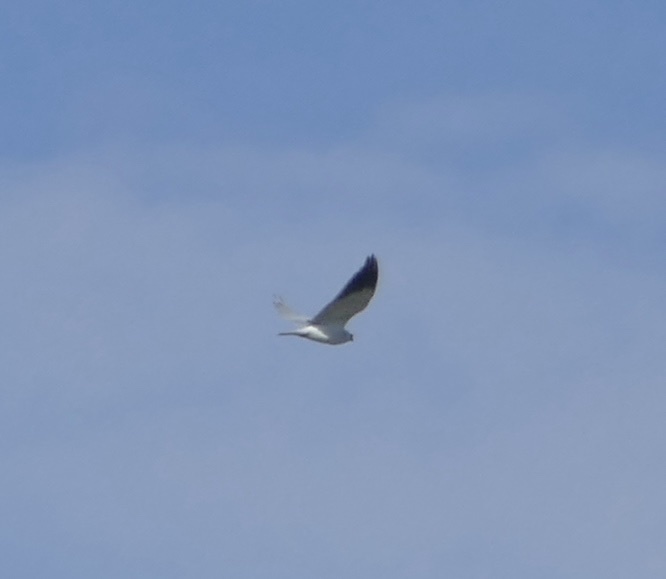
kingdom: Animalia
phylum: Chordata
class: Aves
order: Accipitriformes
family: Accipitridae
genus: Elanus
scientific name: Elanus caeruleus
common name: Black-winged kite
